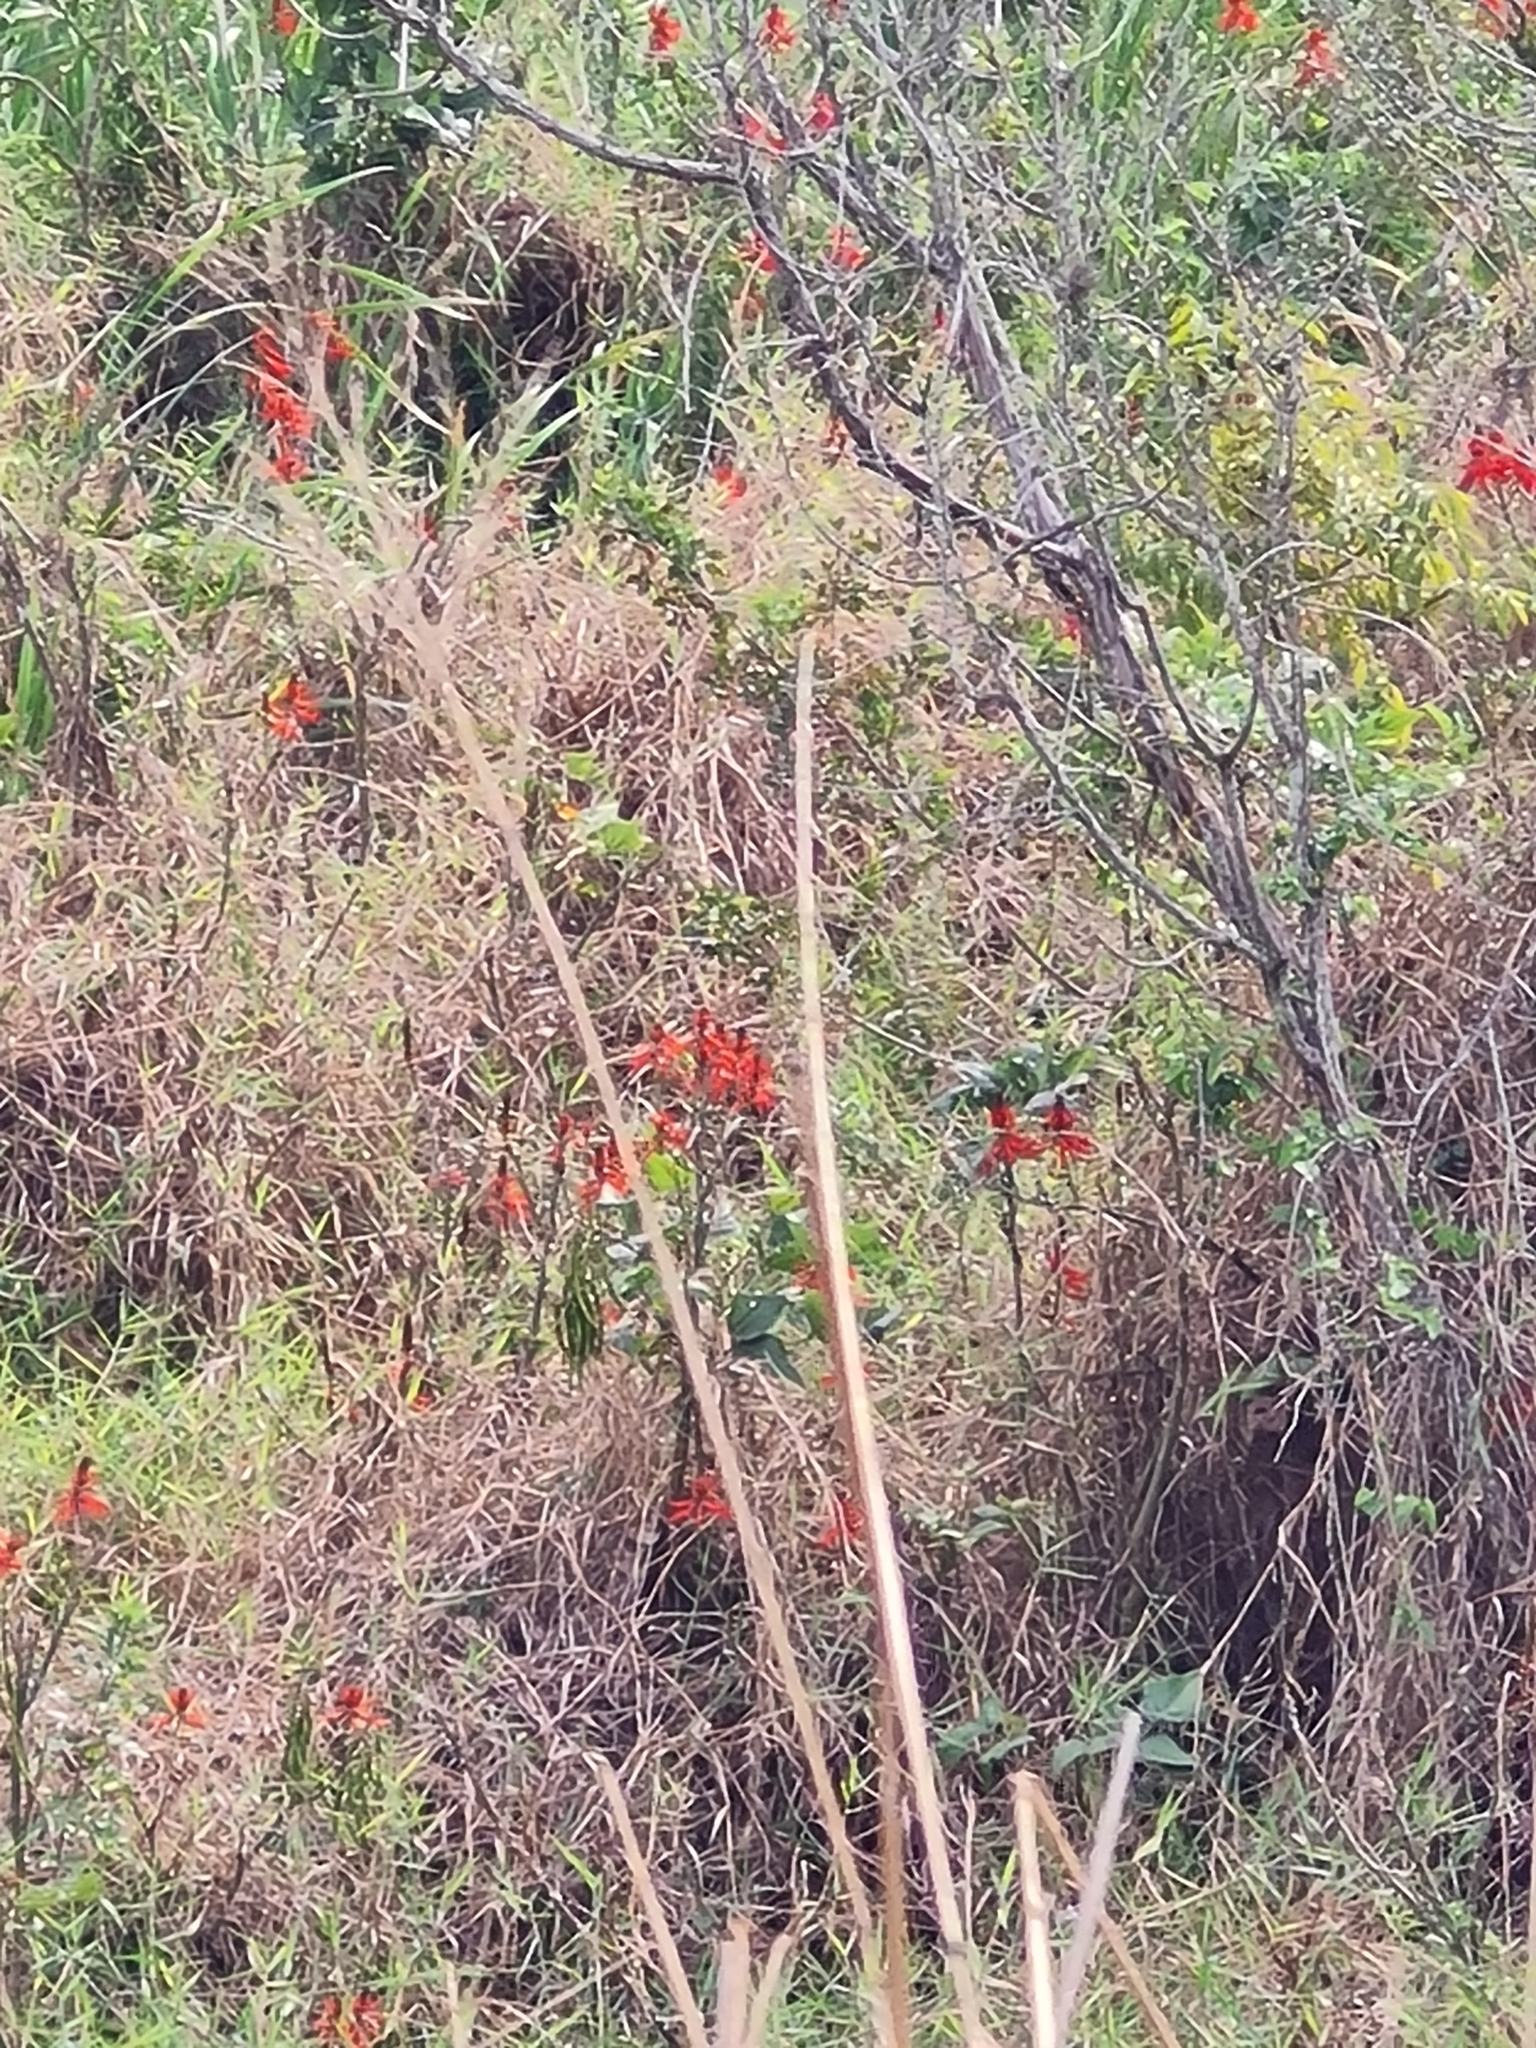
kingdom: Plantae
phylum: Tracheophyta
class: Magnoliopsida
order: Fabales
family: Fabaceae
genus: Erythrina
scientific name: Erythrina speciosa
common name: Coral tree
